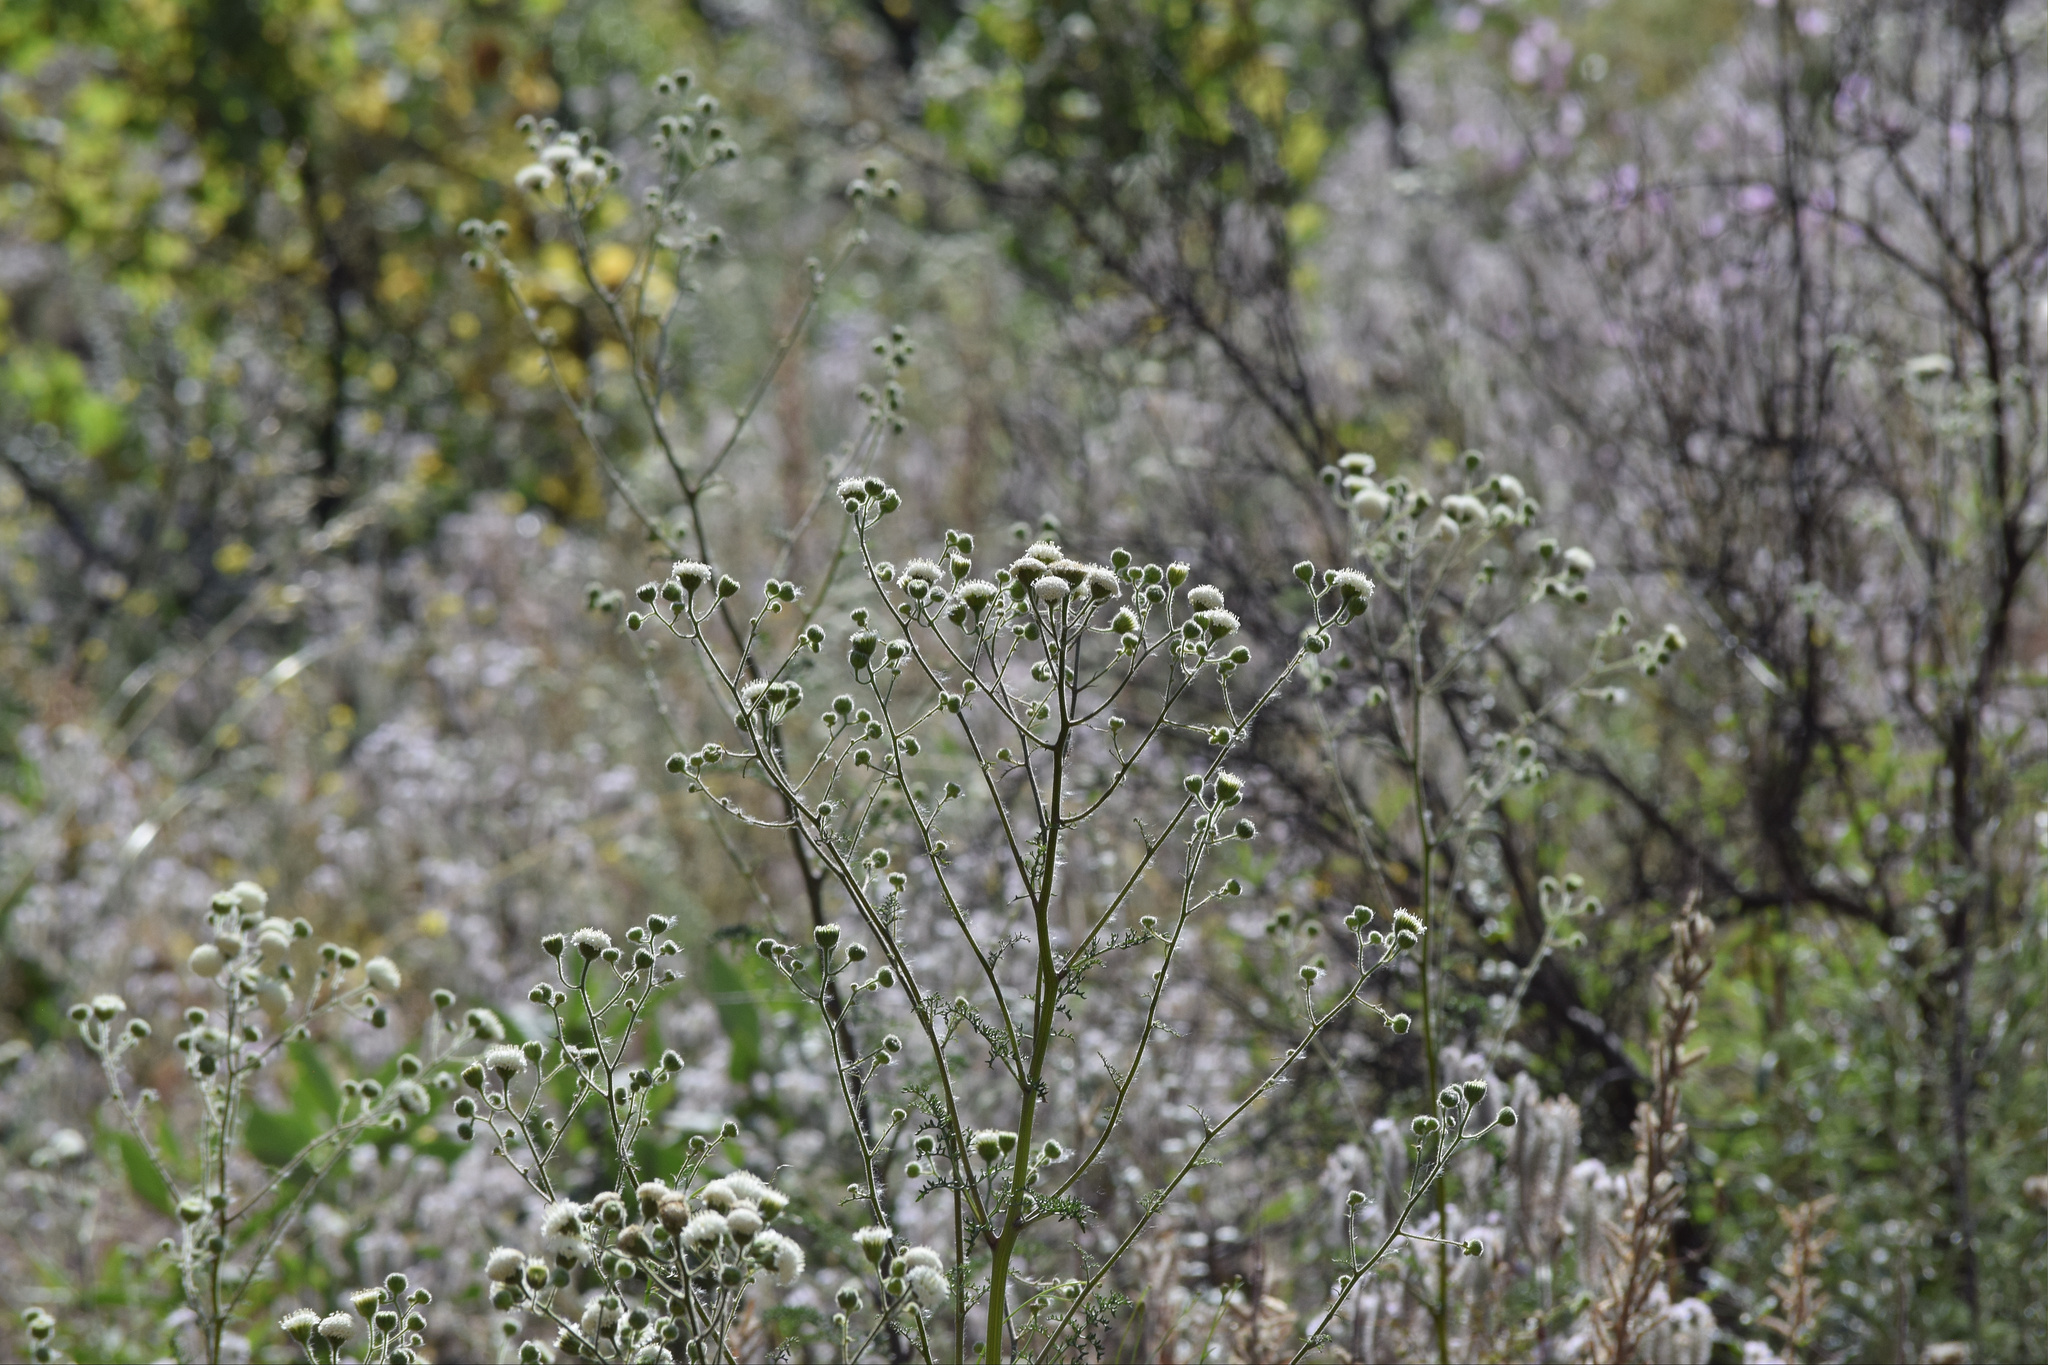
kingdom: Plantae
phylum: Tracheophyta
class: Magnoliopsida
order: Asterales
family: Asteraceae
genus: Chaenactis
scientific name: Chaenactis artemisiifolia
